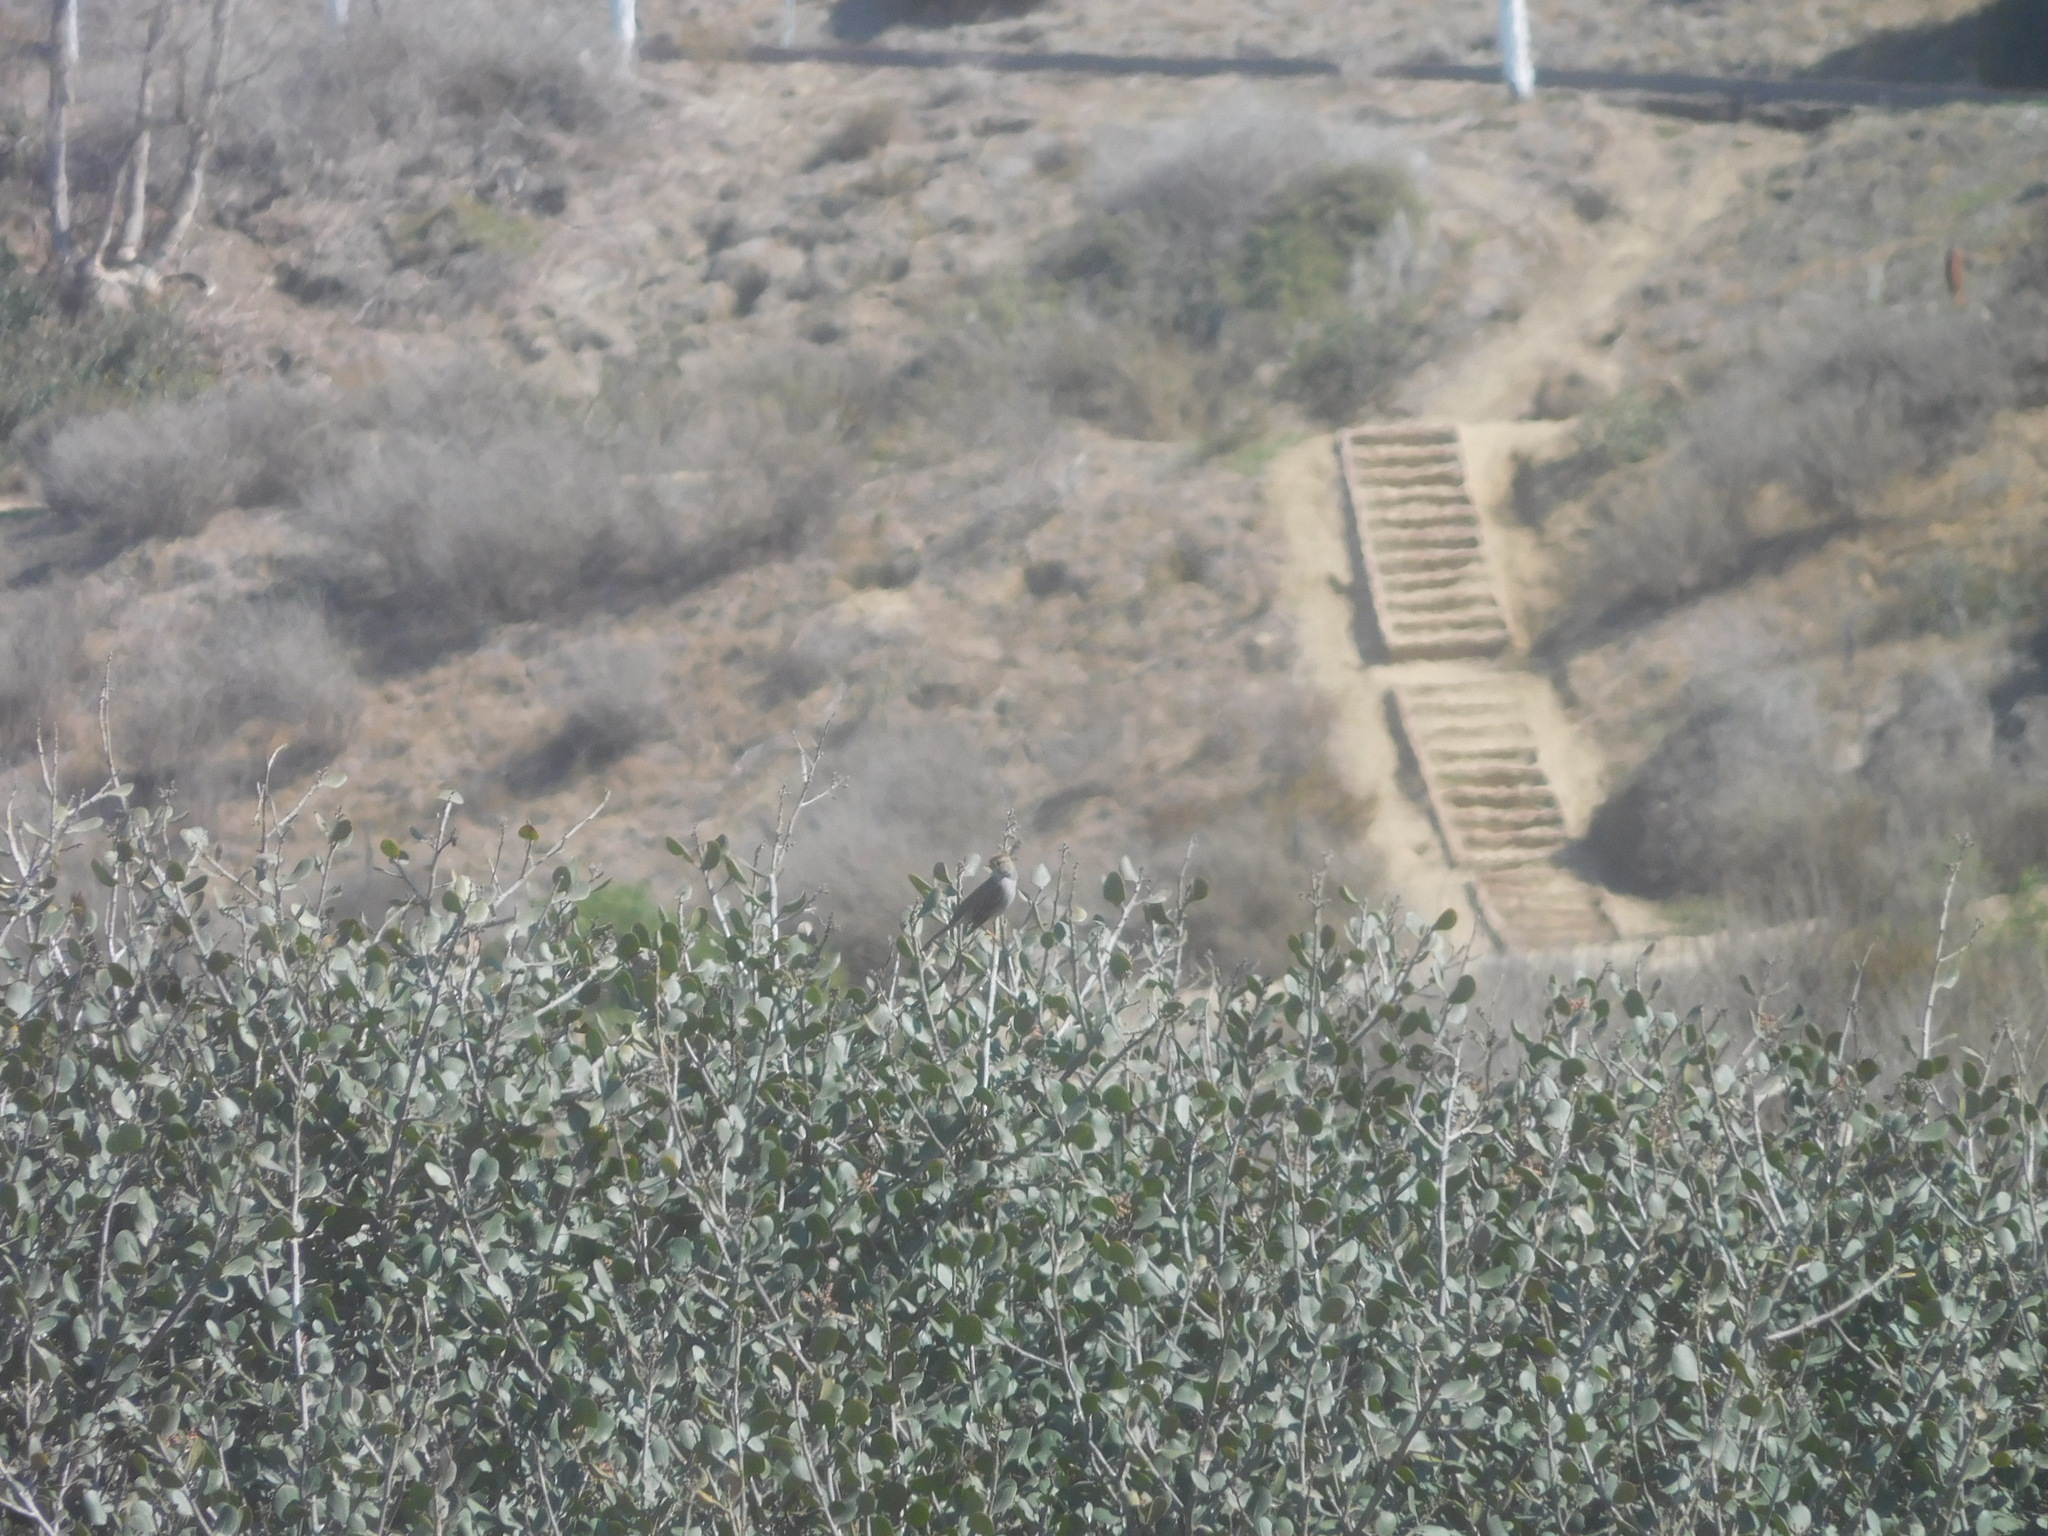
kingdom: Animalia
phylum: Chordata
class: Aves
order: Passeriformes
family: Passerellidae
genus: Zonotrichia
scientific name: Zonotrichia leucophrys
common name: White-crowned sparrow
